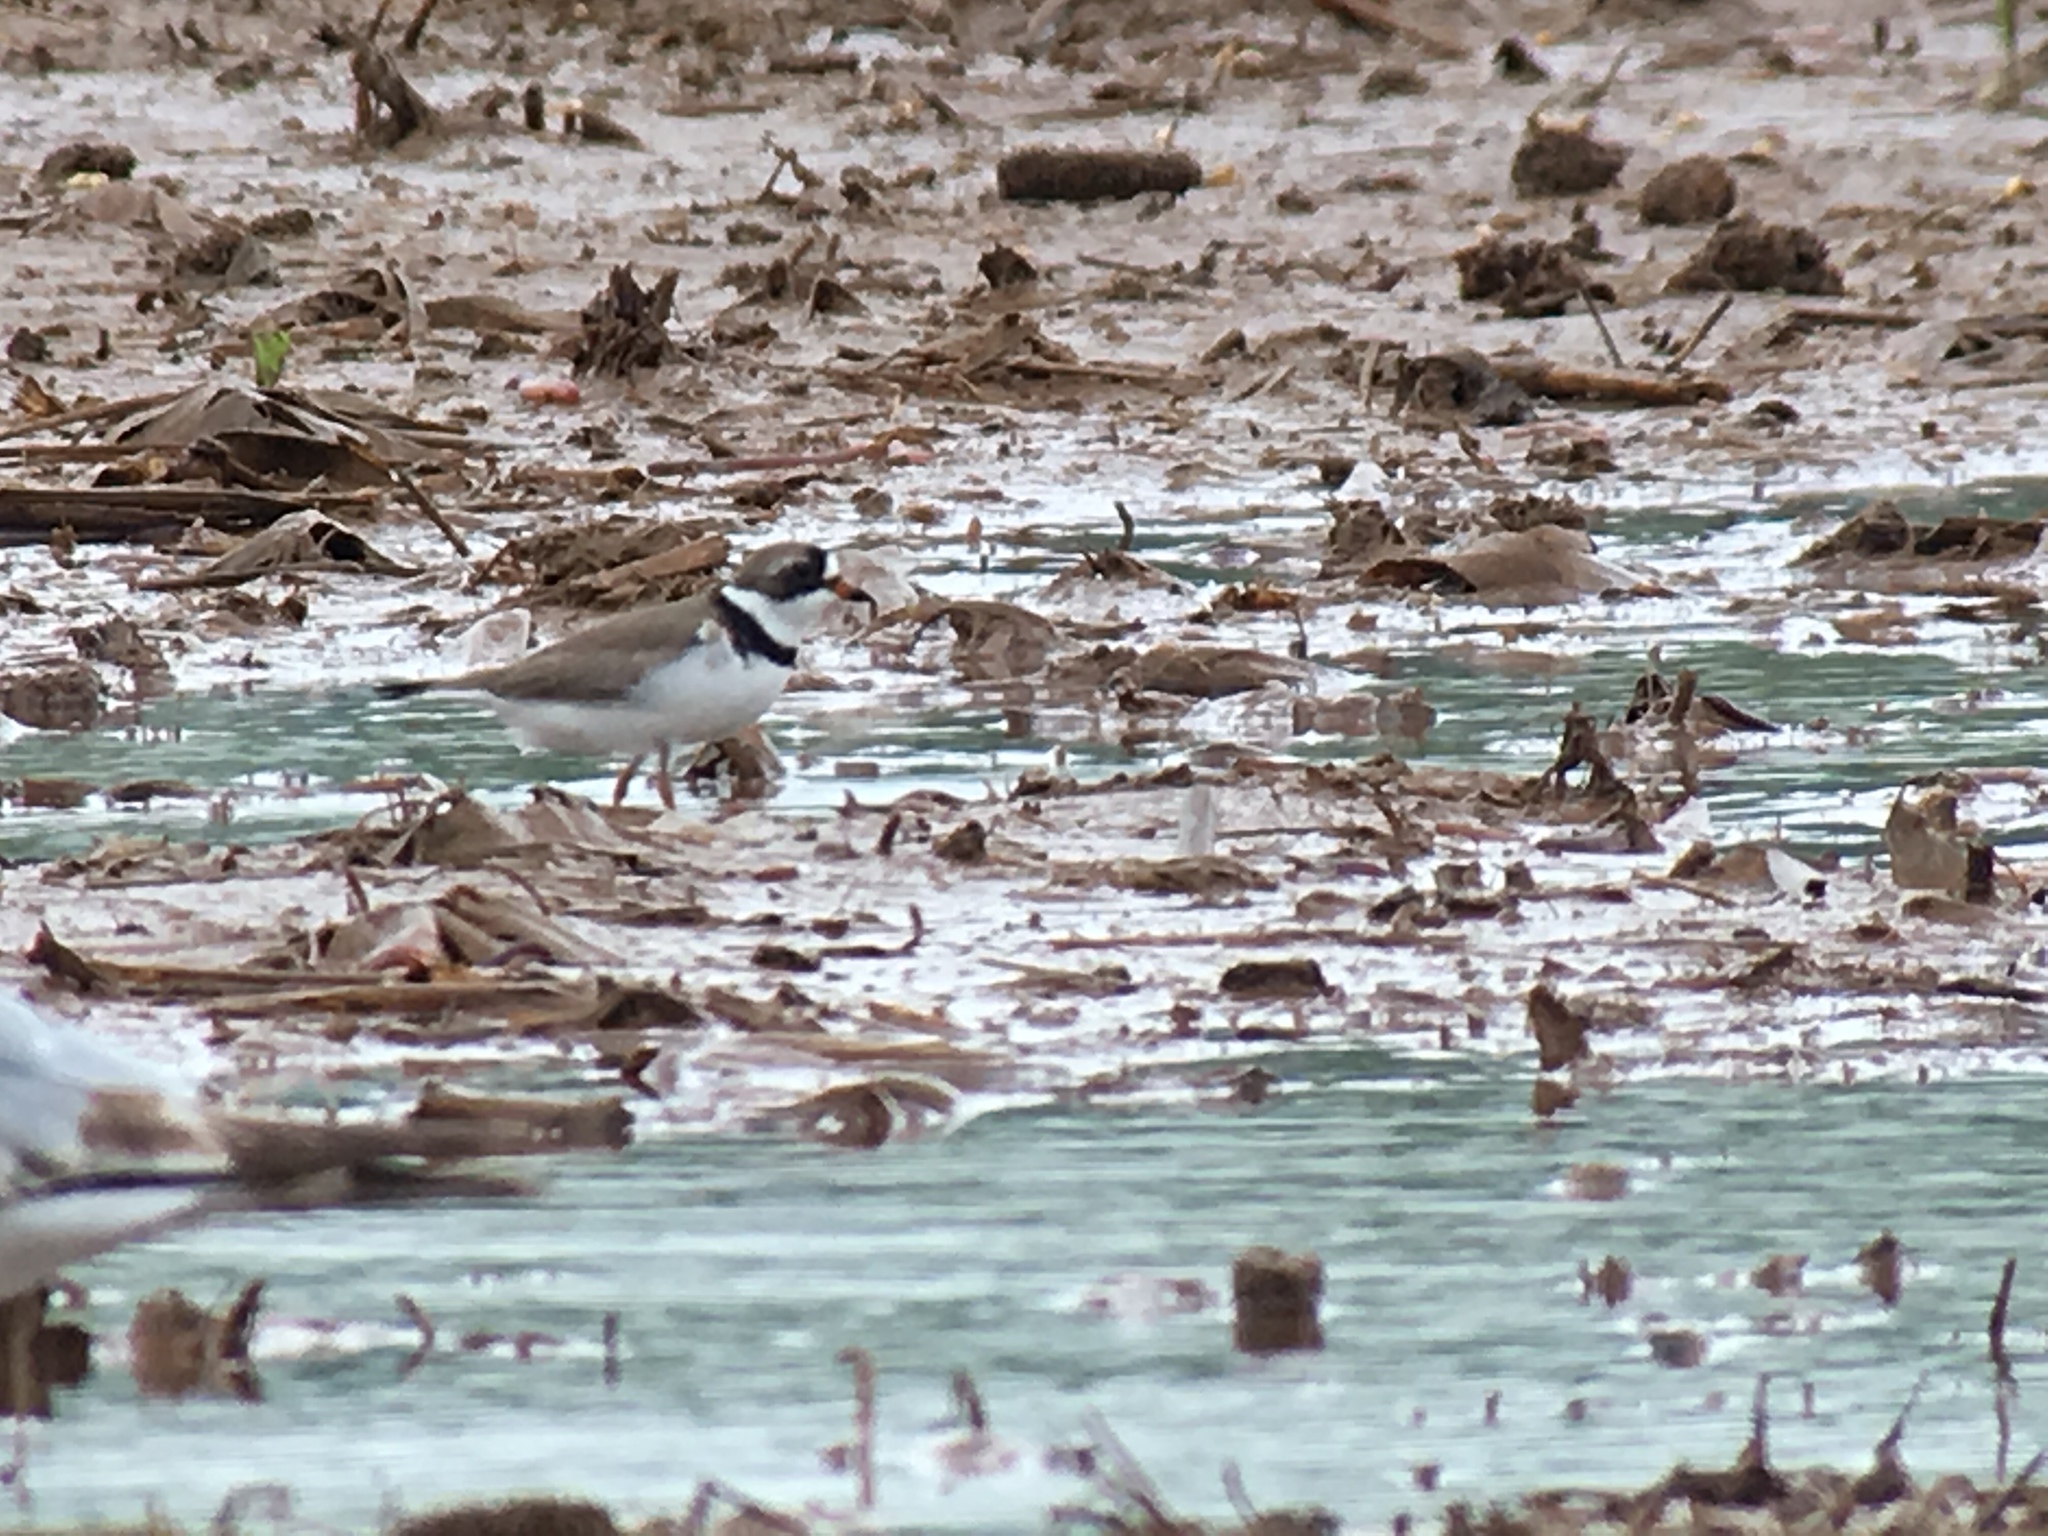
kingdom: Animalia
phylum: Chordata
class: Aves
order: Charadriiformes
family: Charadriidae
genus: Charadrius
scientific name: Charadrius semipalmatus
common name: Semipalmated plover
